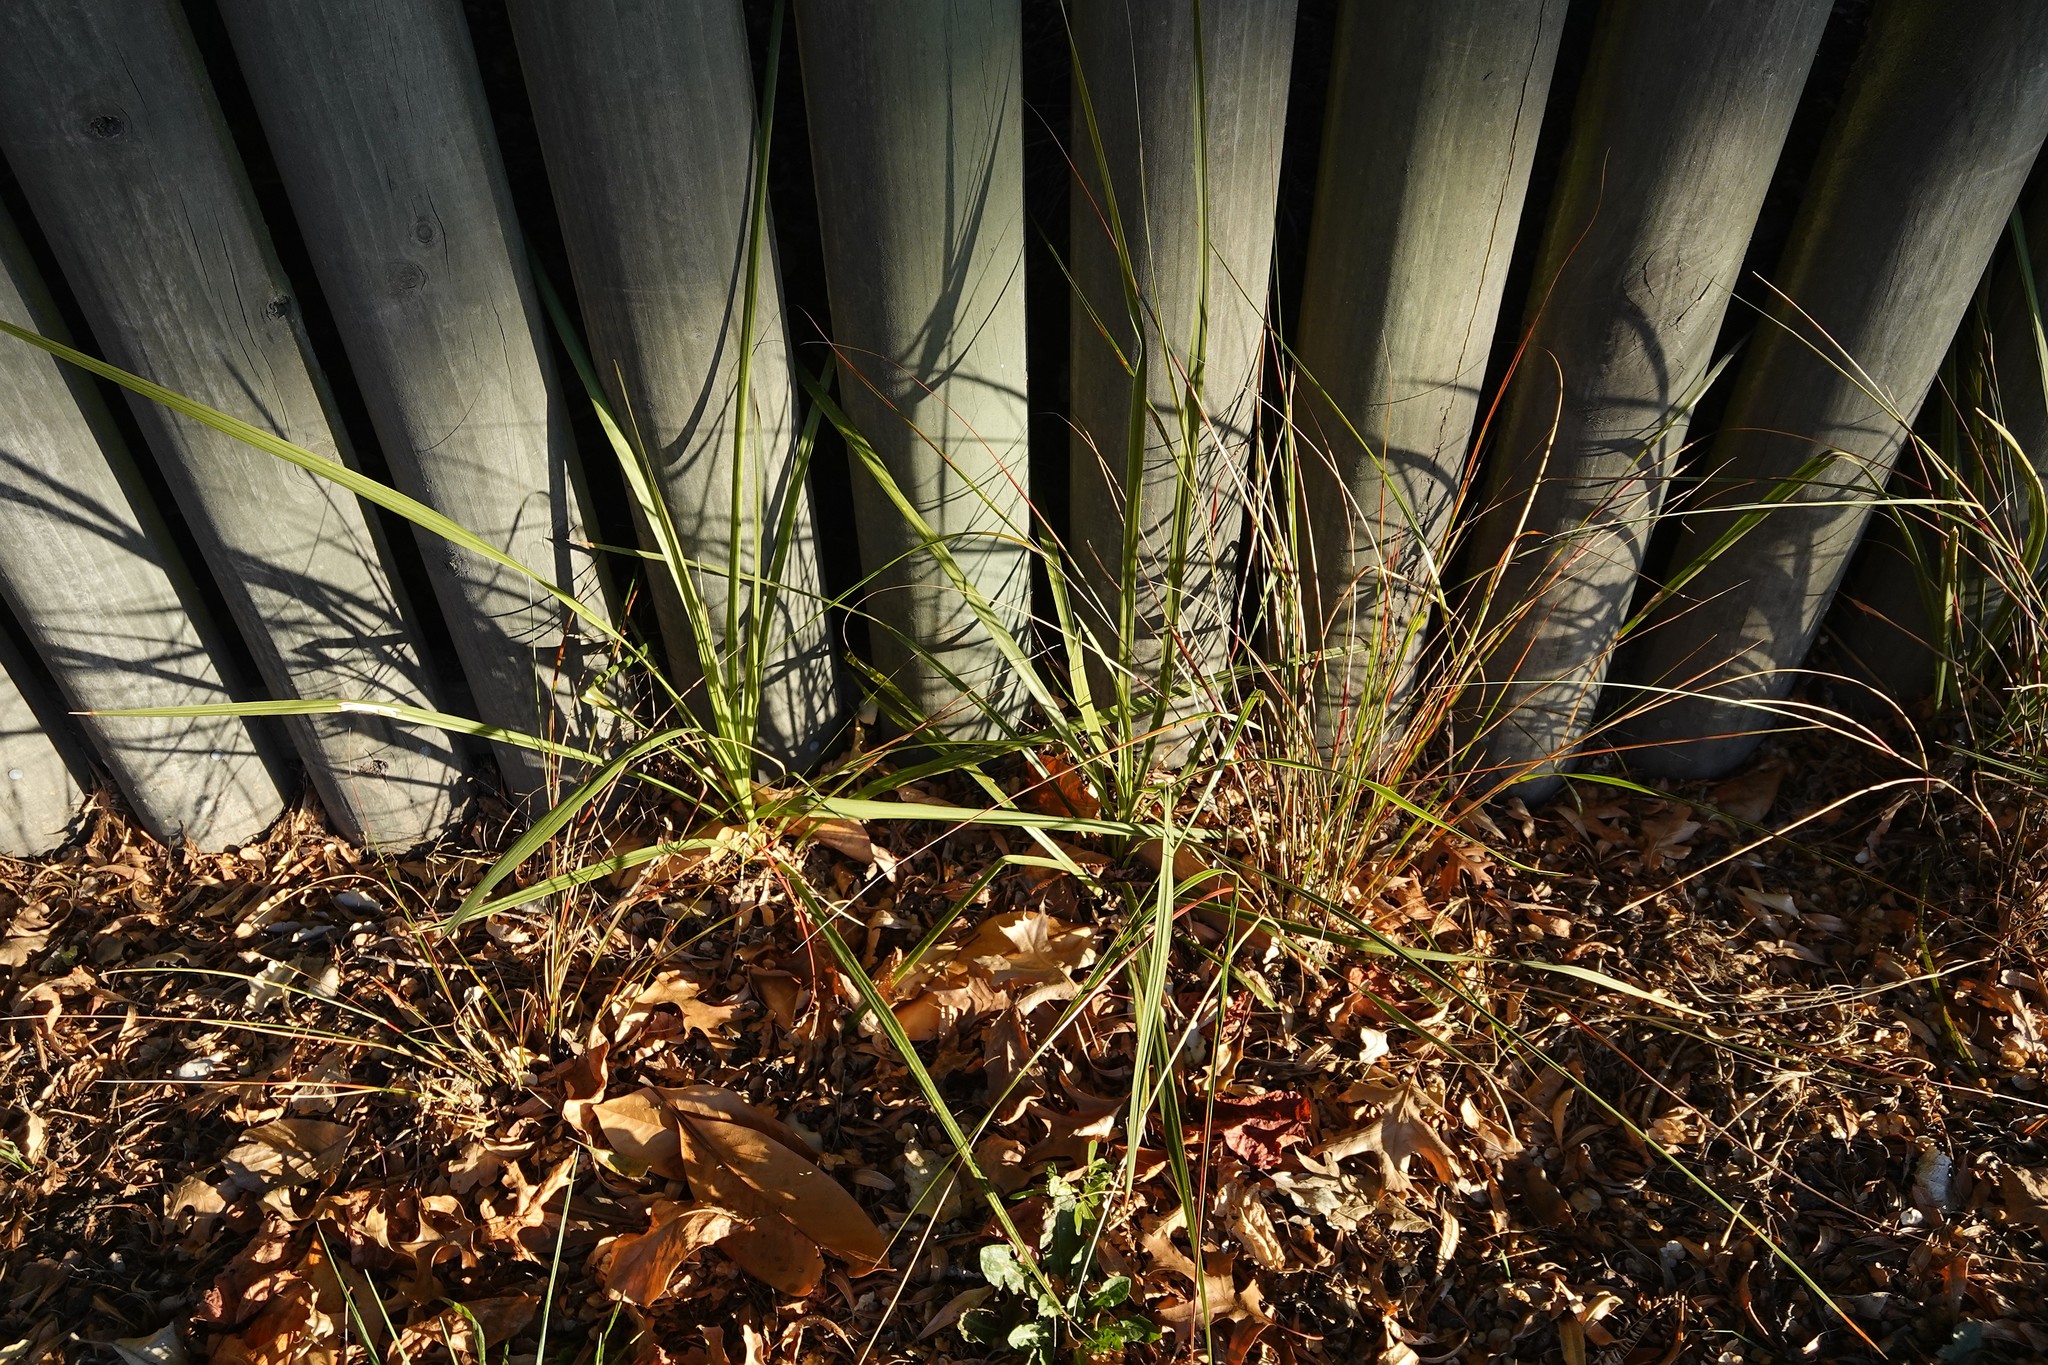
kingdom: Plantae
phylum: Tracheophyta
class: Liliopsida
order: Asparagales
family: Asparagaceae
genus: Cordyline
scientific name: Cordyline australis
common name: Cabbage-palm
